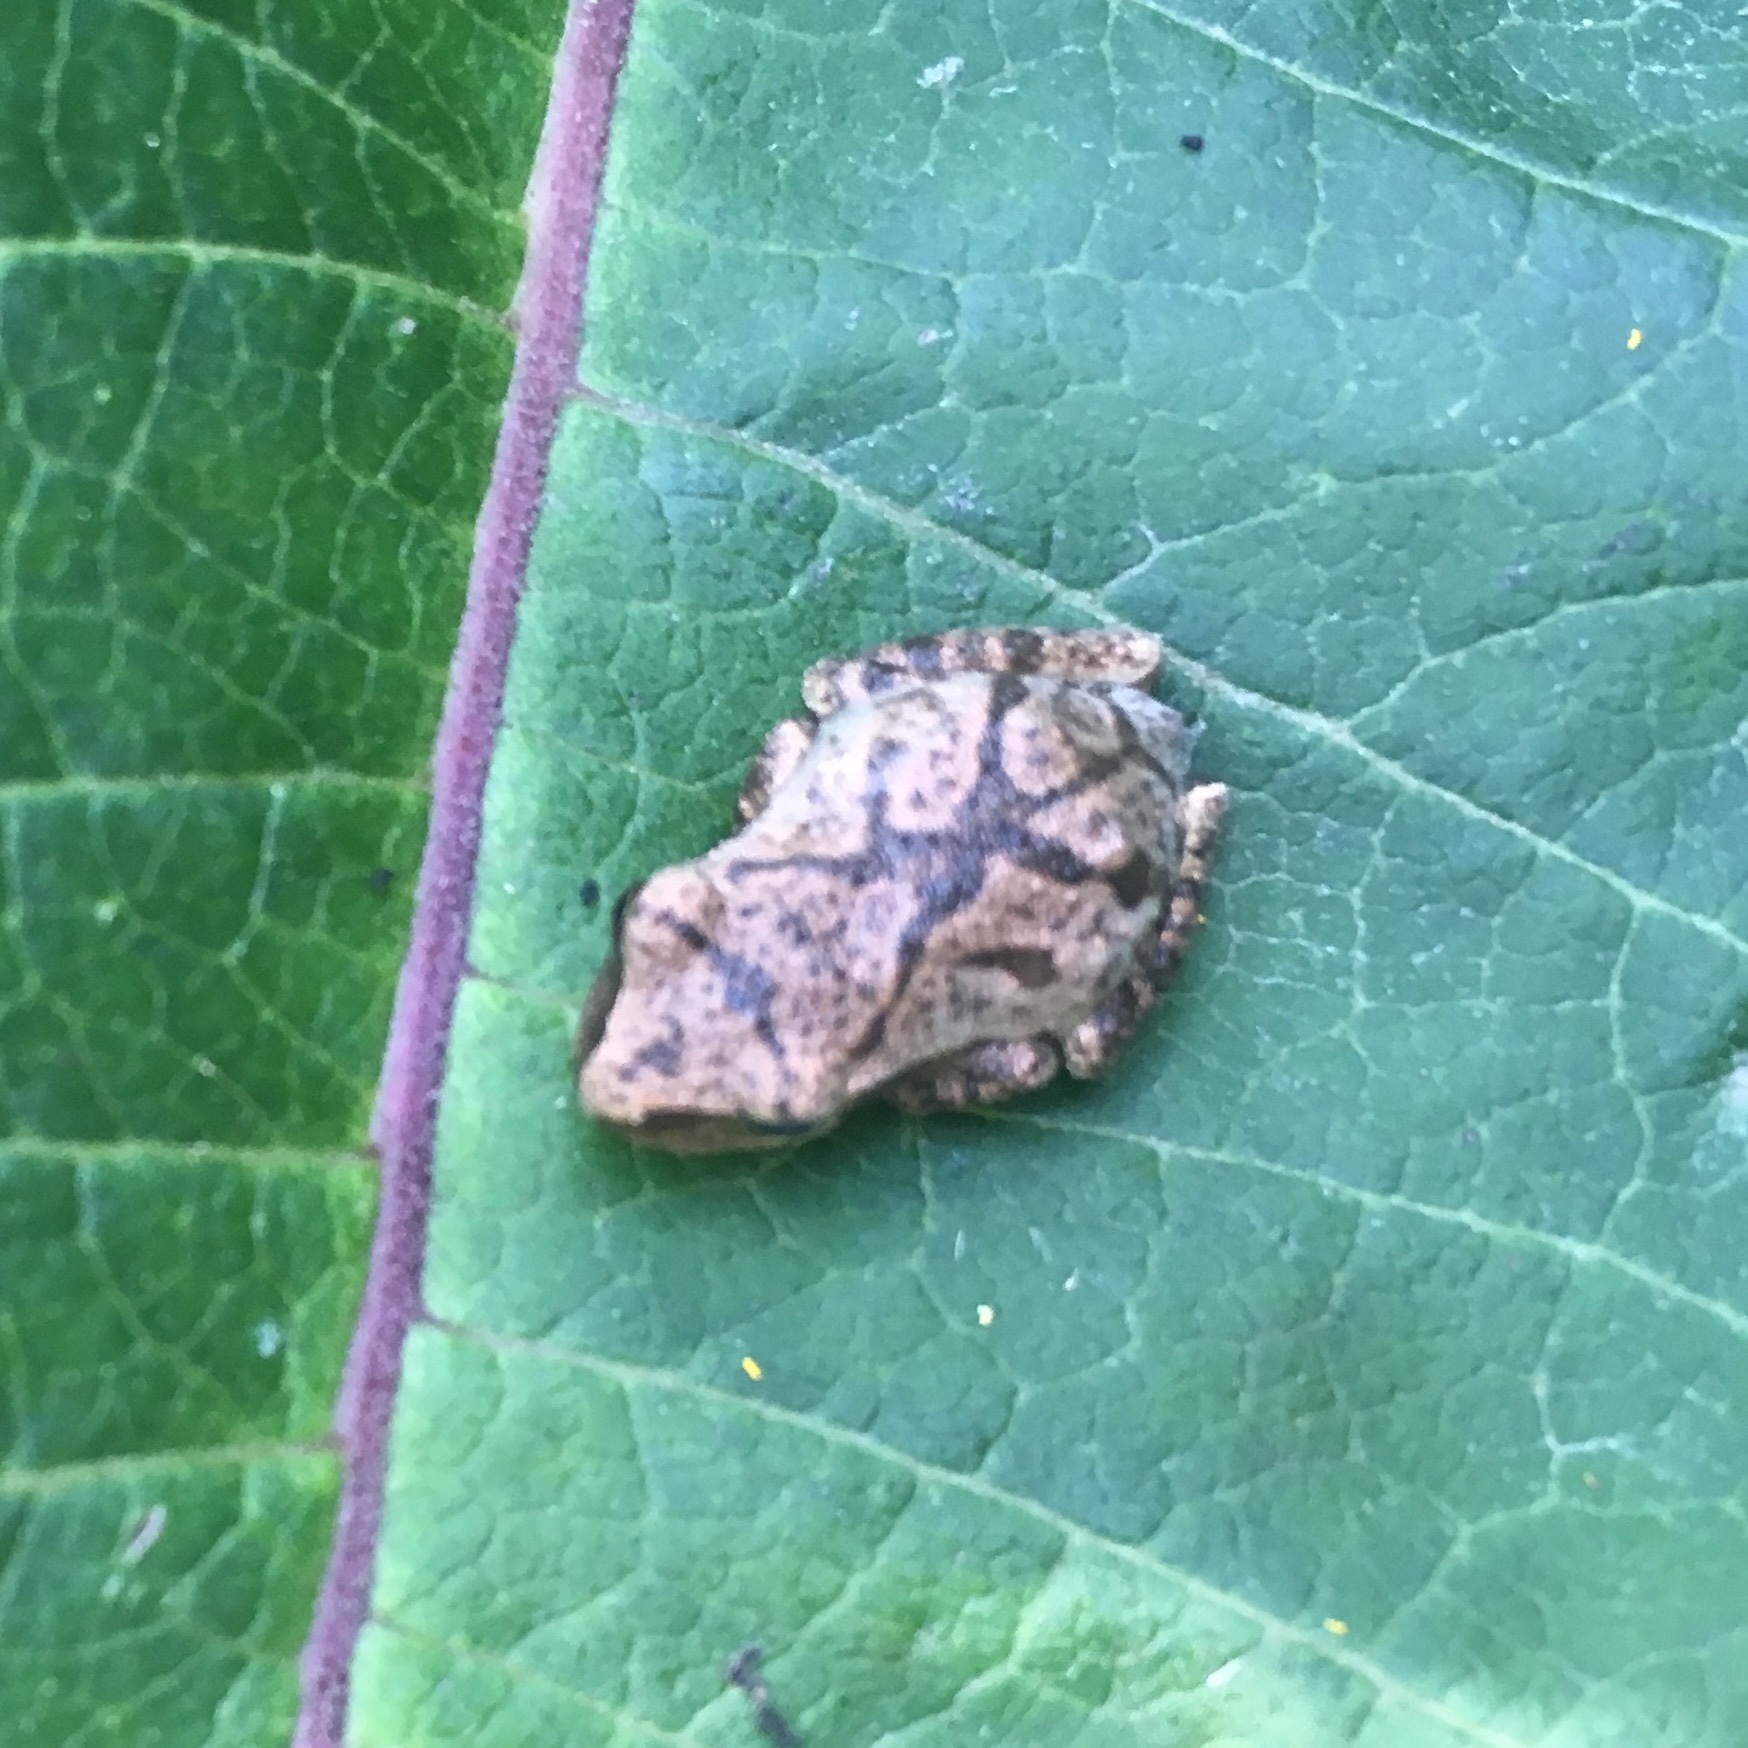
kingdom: Animalia
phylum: Chordata
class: Amphibia
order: Anura
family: Hylidae
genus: Pseudacris
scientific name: Pseudacris crucifer
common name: Spring peeper
